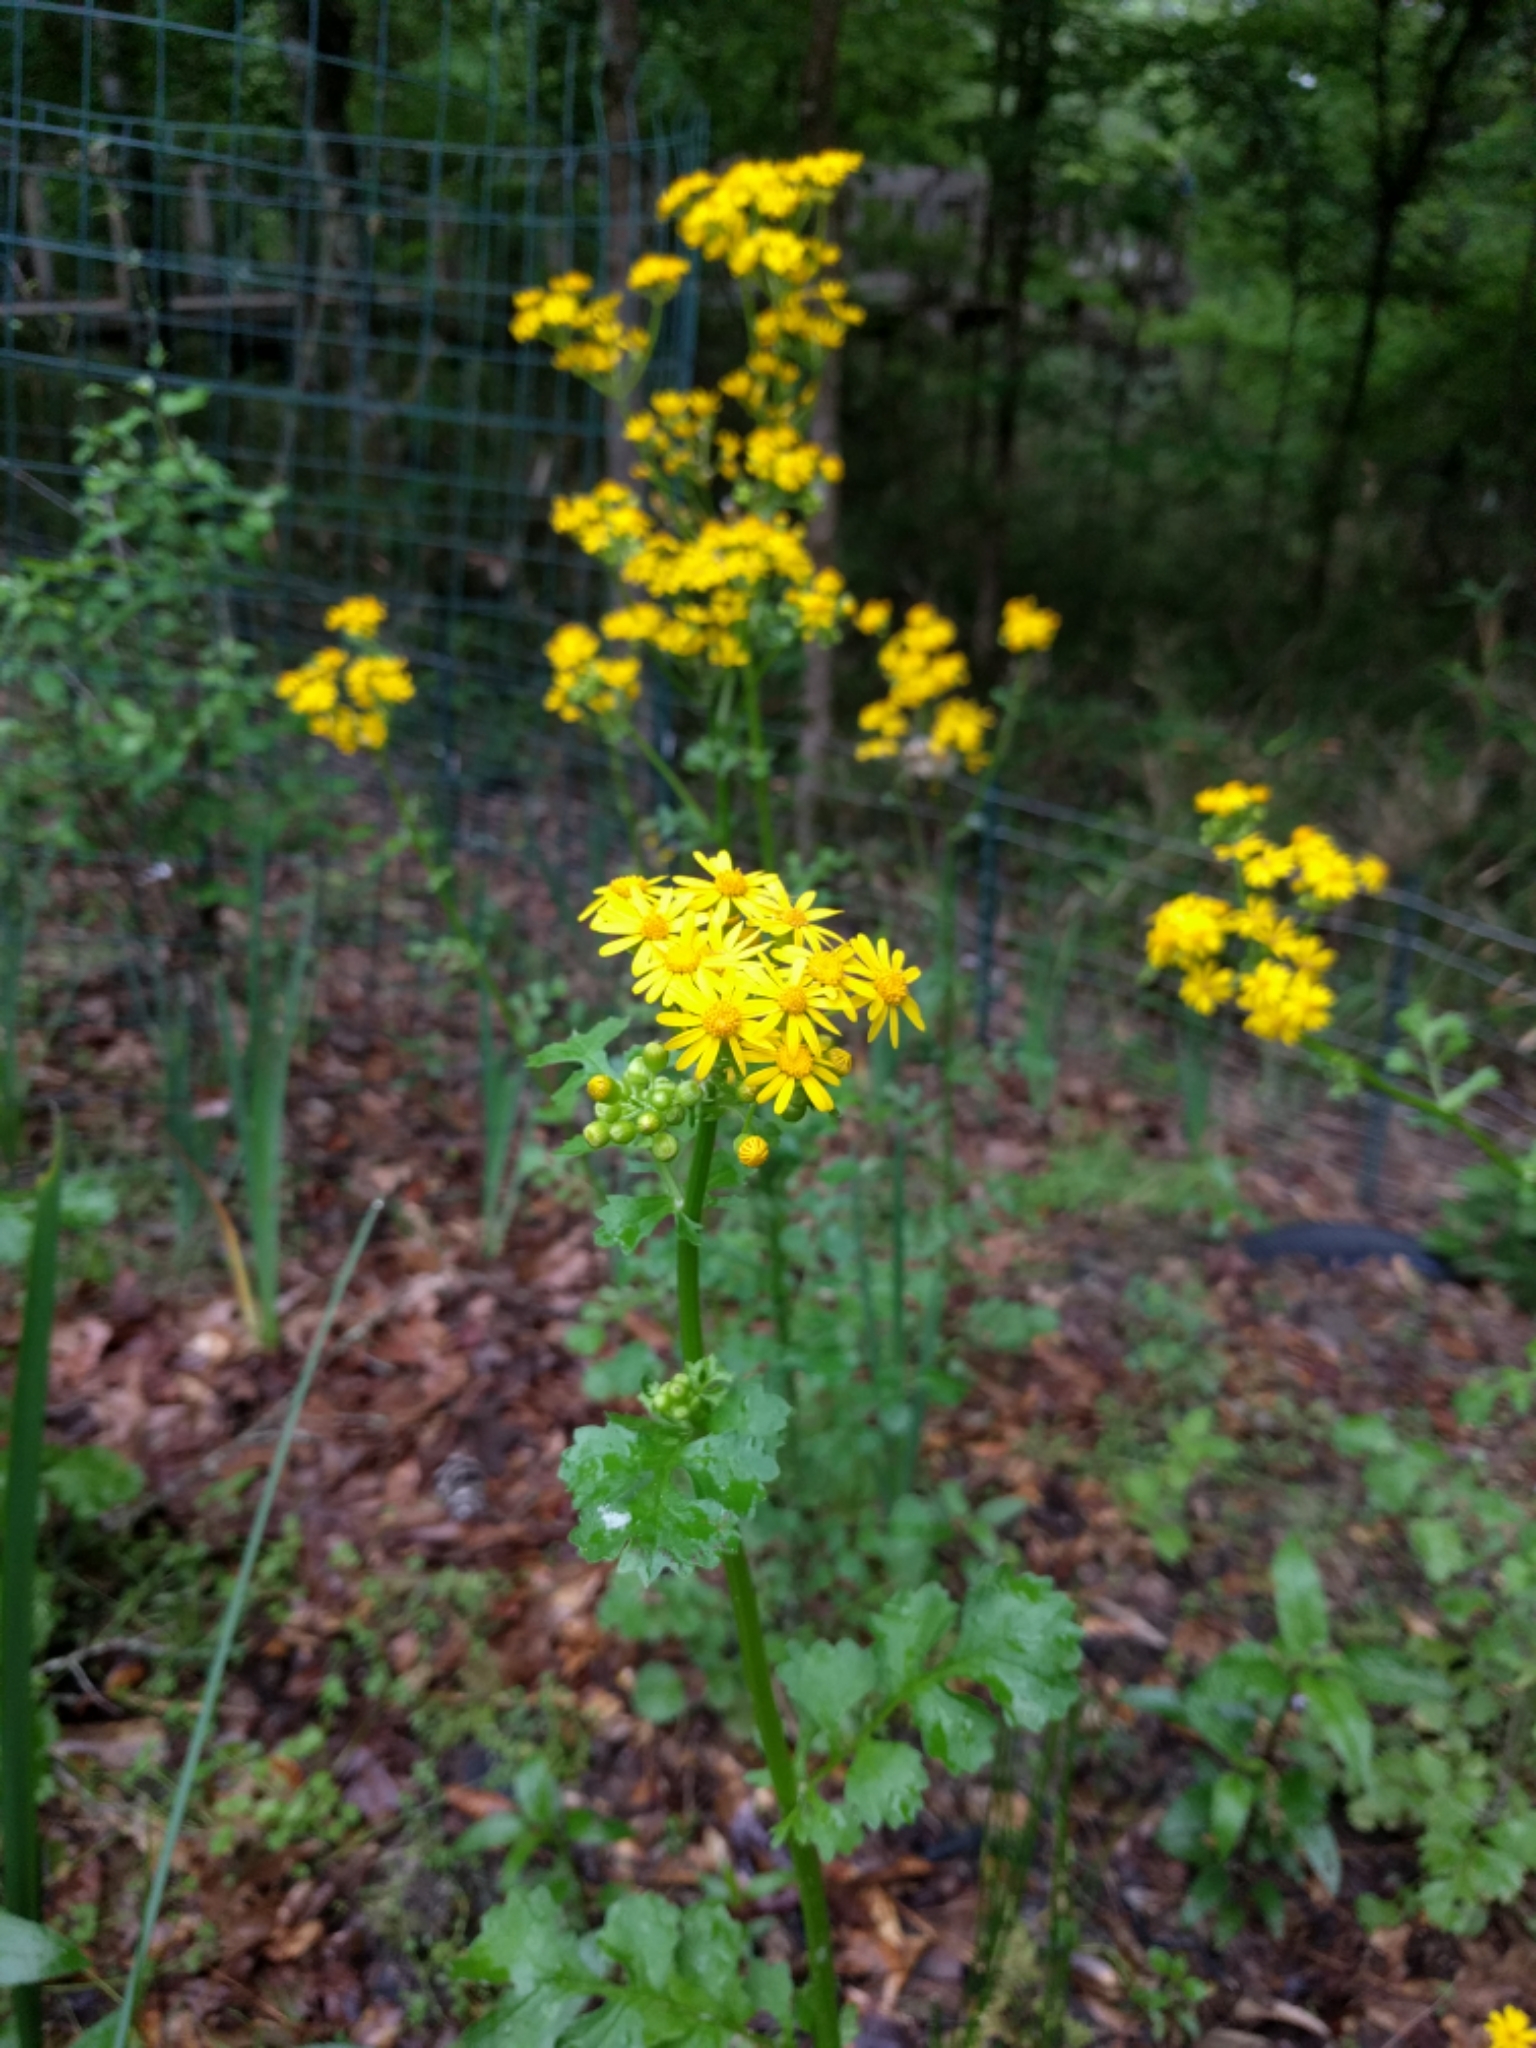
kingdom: Plantae
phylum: Tracheophyta
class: Magnoliopsida
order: Asterales
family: Asteraceae
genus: Packera
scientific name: Packera glabella
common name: Butterweed
